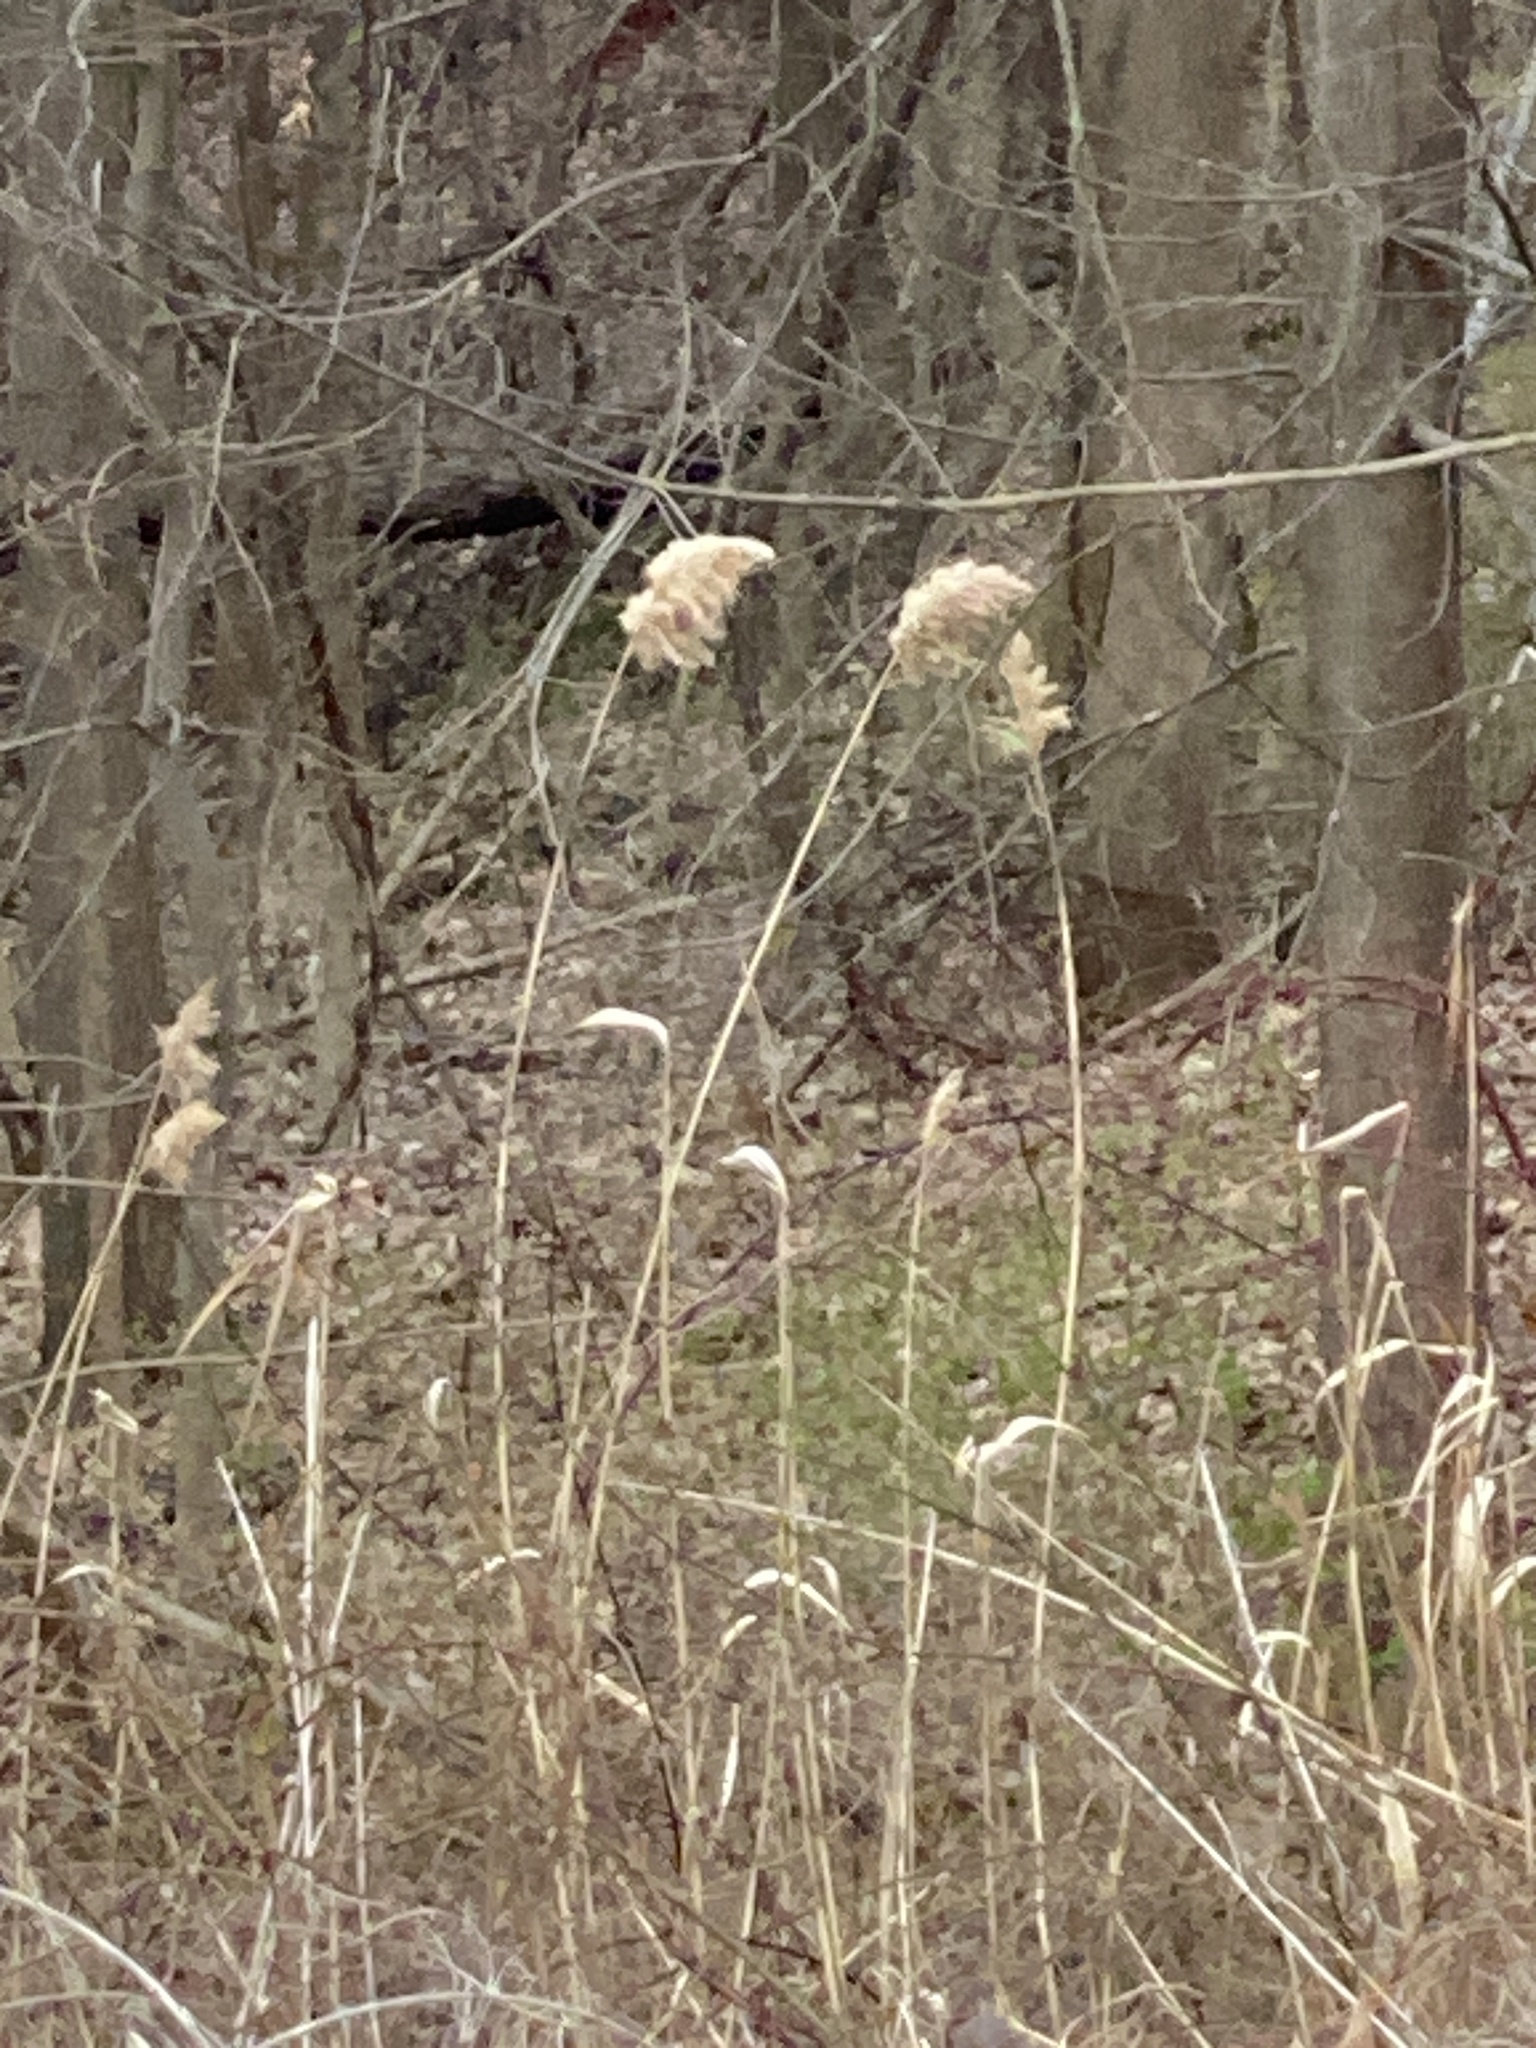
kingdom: Plantae
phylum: Tracheophyta
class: Liliopsida
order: Poales
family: Poaceae
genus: Phragmites
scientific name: Phragmites australis
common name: Common reed
